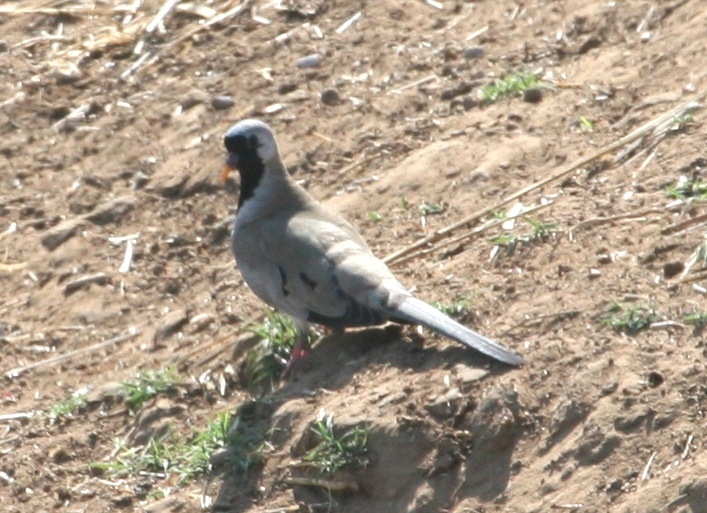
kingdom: Animalia
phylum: Chordata
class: Aves
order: Columbiformes
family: Columbidae
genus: Oena
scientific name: Oena capensis
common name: Namaqua dove
